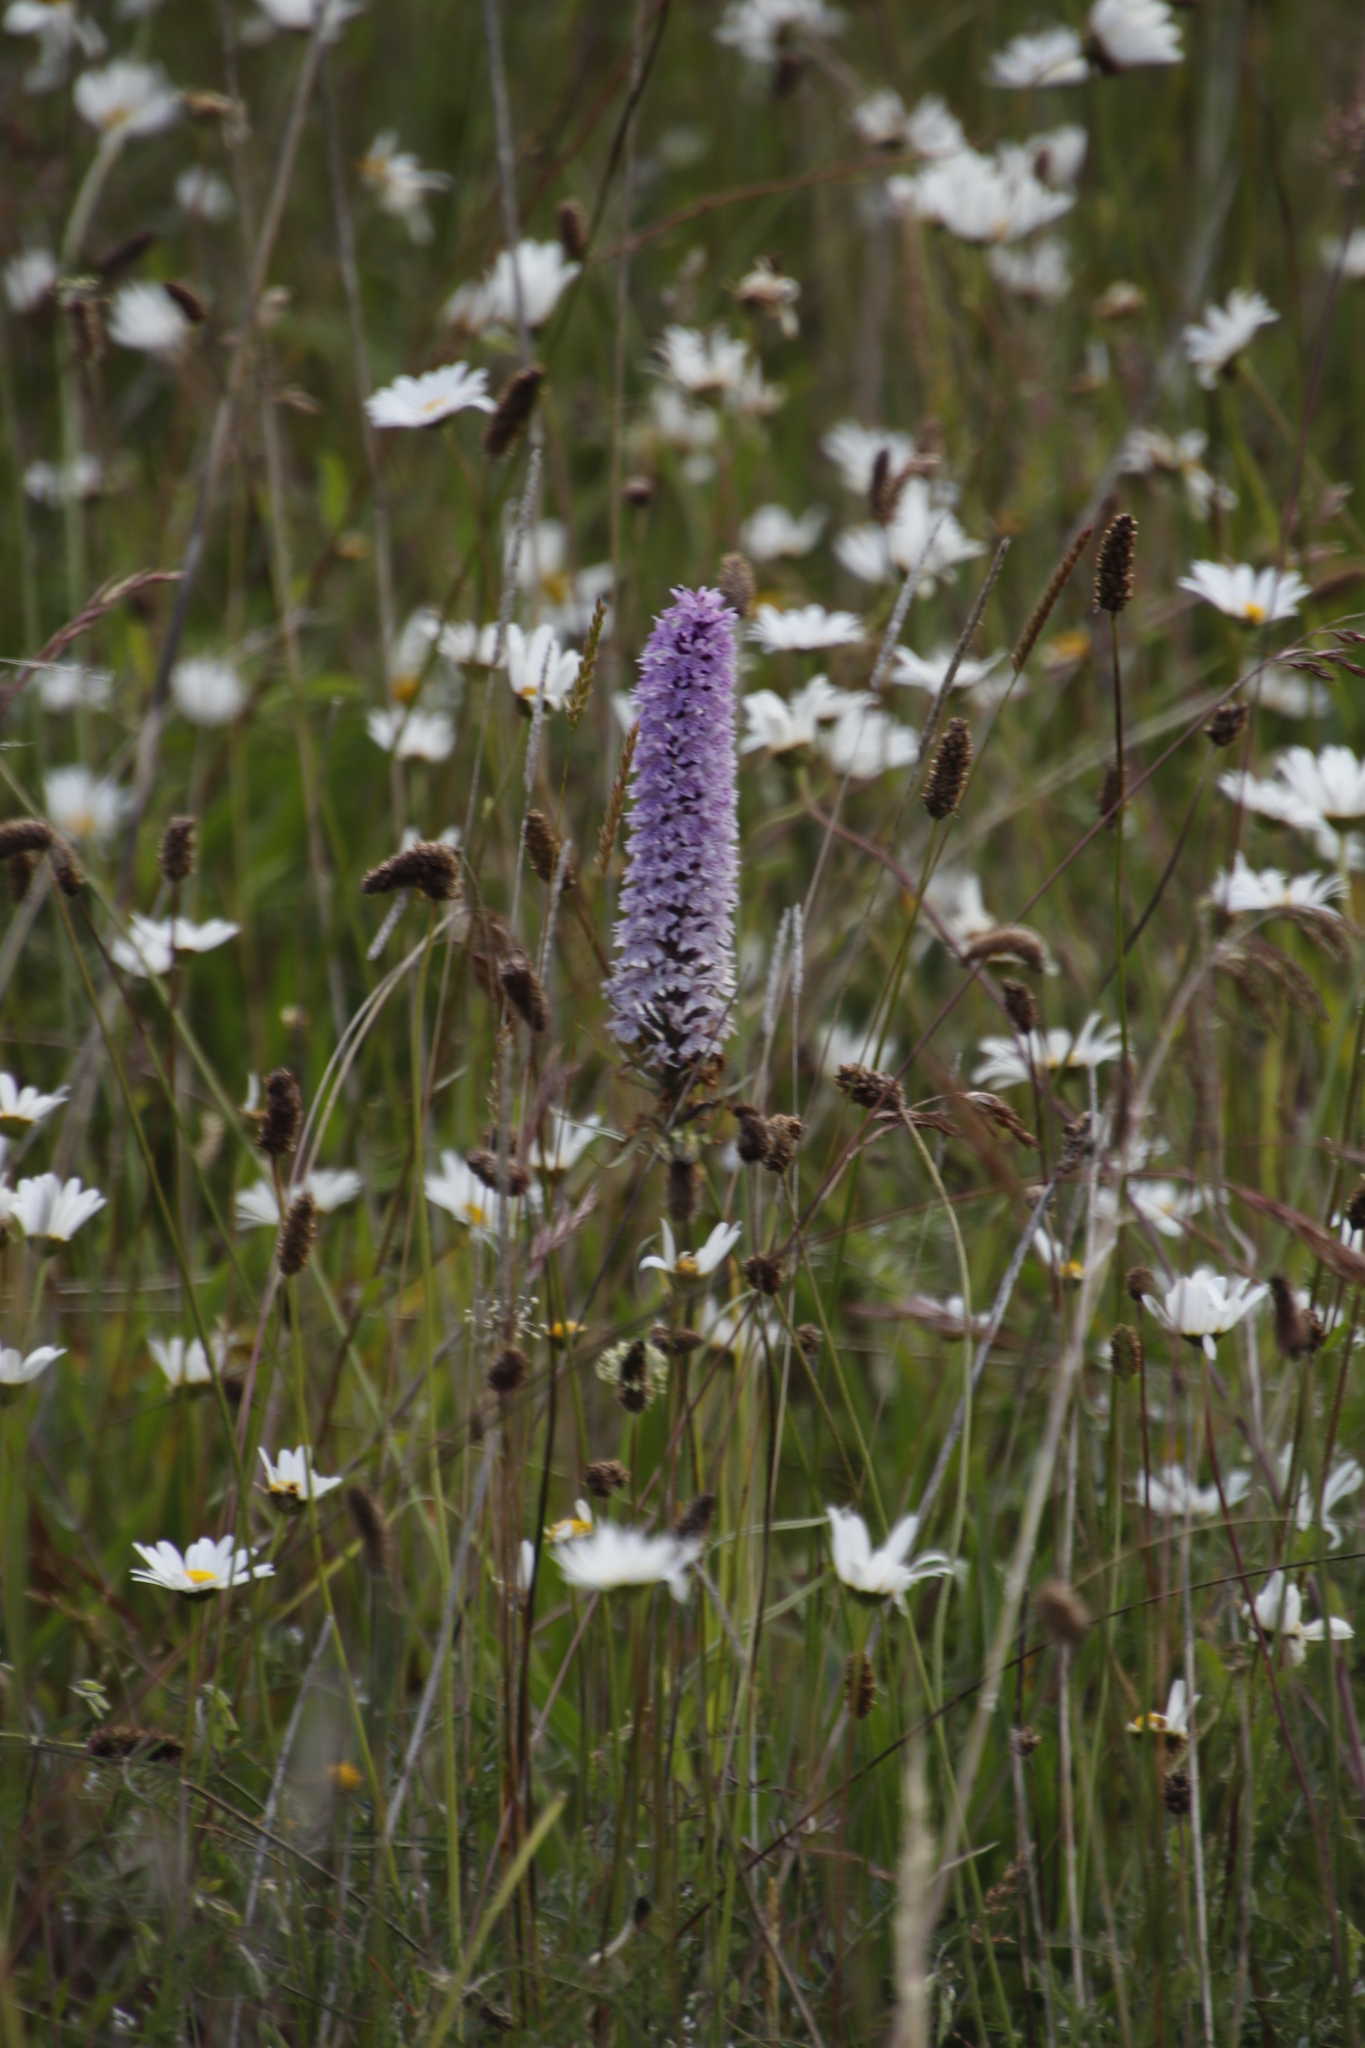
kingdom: Plantae
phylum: Tracheophyta
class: Liliopsida
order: Asparagales
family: Orchidaceae
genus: Dactylorhiza
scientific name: Dactylorhiza maculata
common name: Heath spotted-orchid
